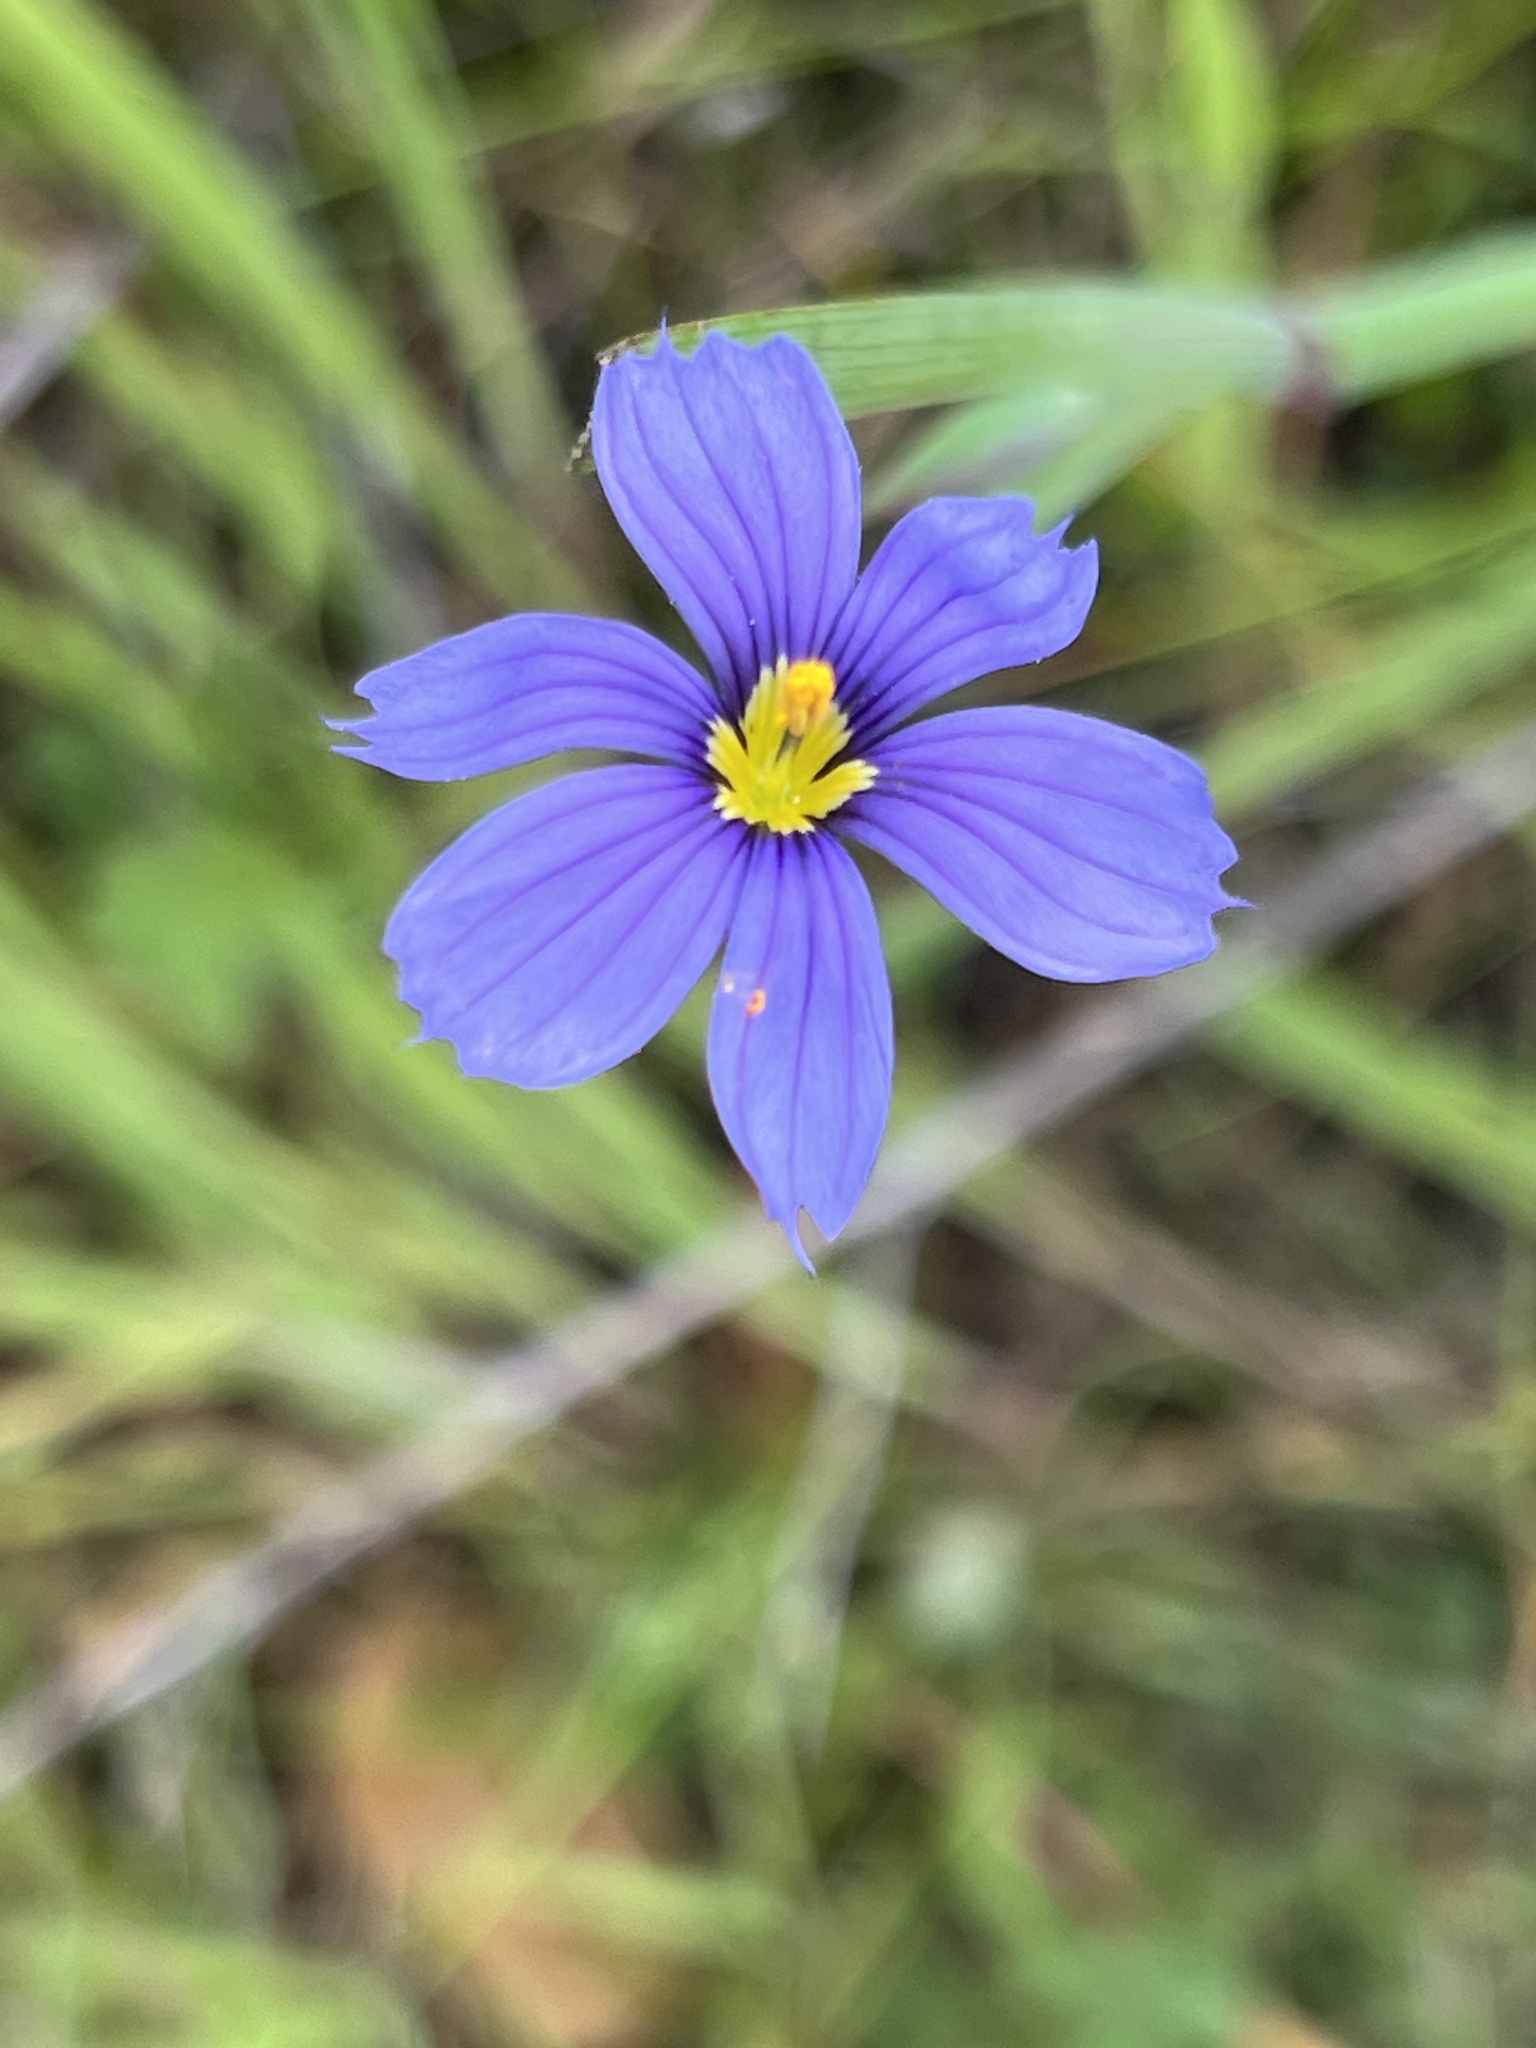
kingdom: Plantae
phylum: Tracheophyta
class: Liliopsida
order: Asparagales
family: Iridaceae
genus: Sisyrinchium
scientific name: Sisyrinchium bellum
